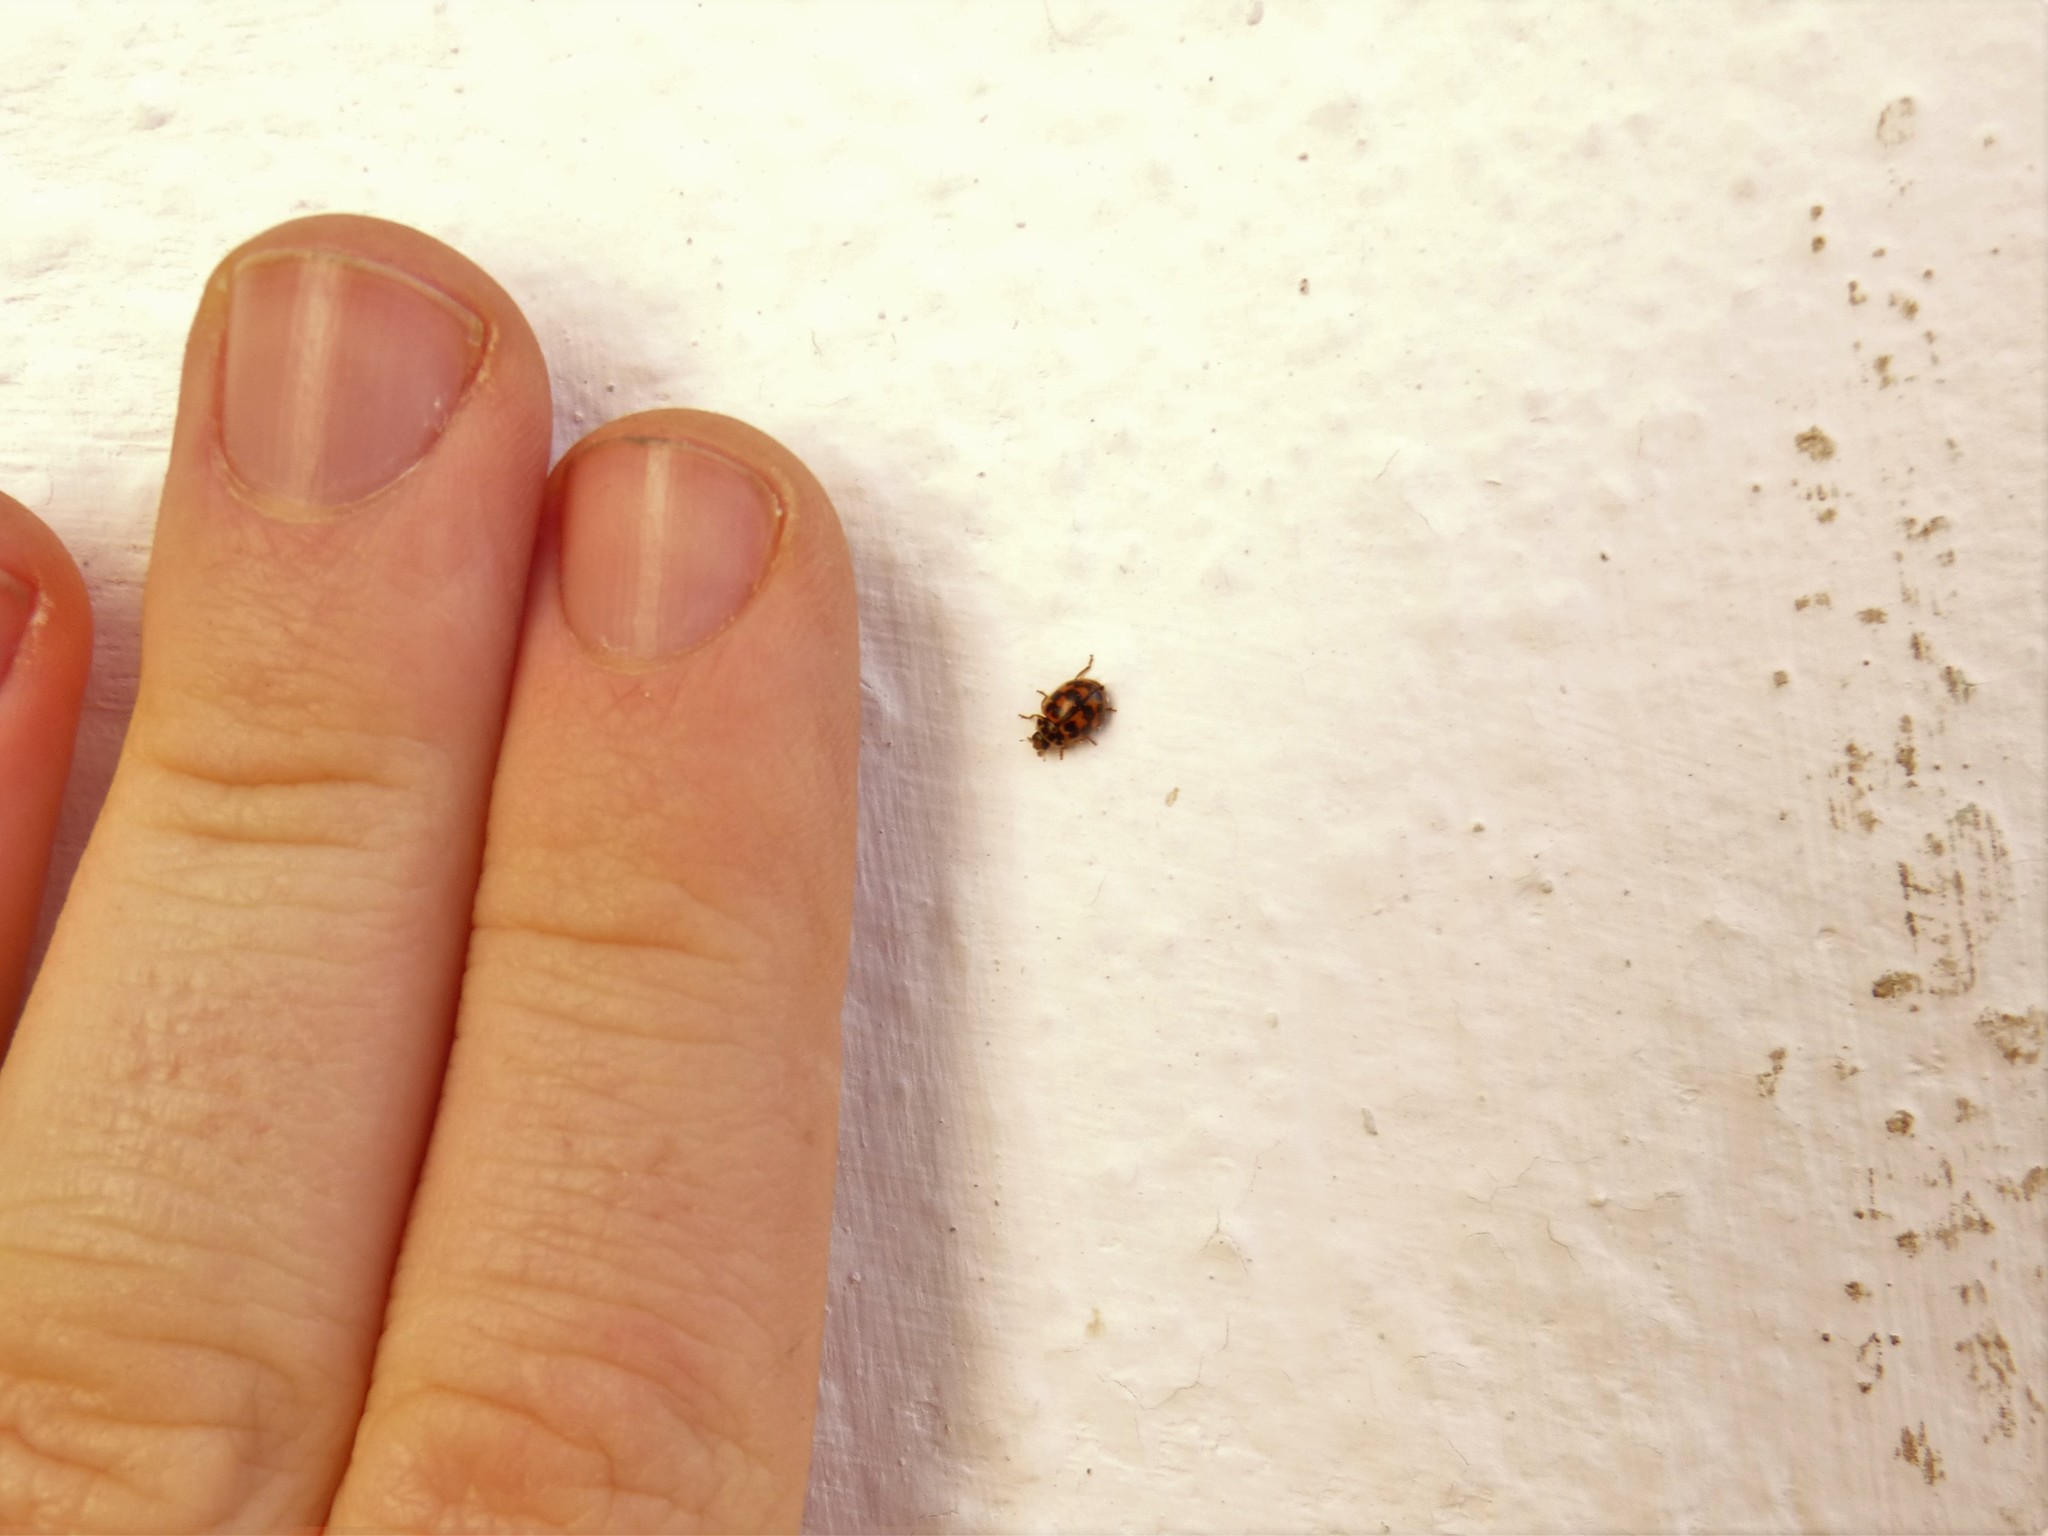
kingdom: Animalia
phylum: Arthropoda
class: Insecta
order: Coleoptera
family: Coccinellidae
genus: Oenopia
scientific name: Oenopia conglobata
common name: Ladybird beetle
